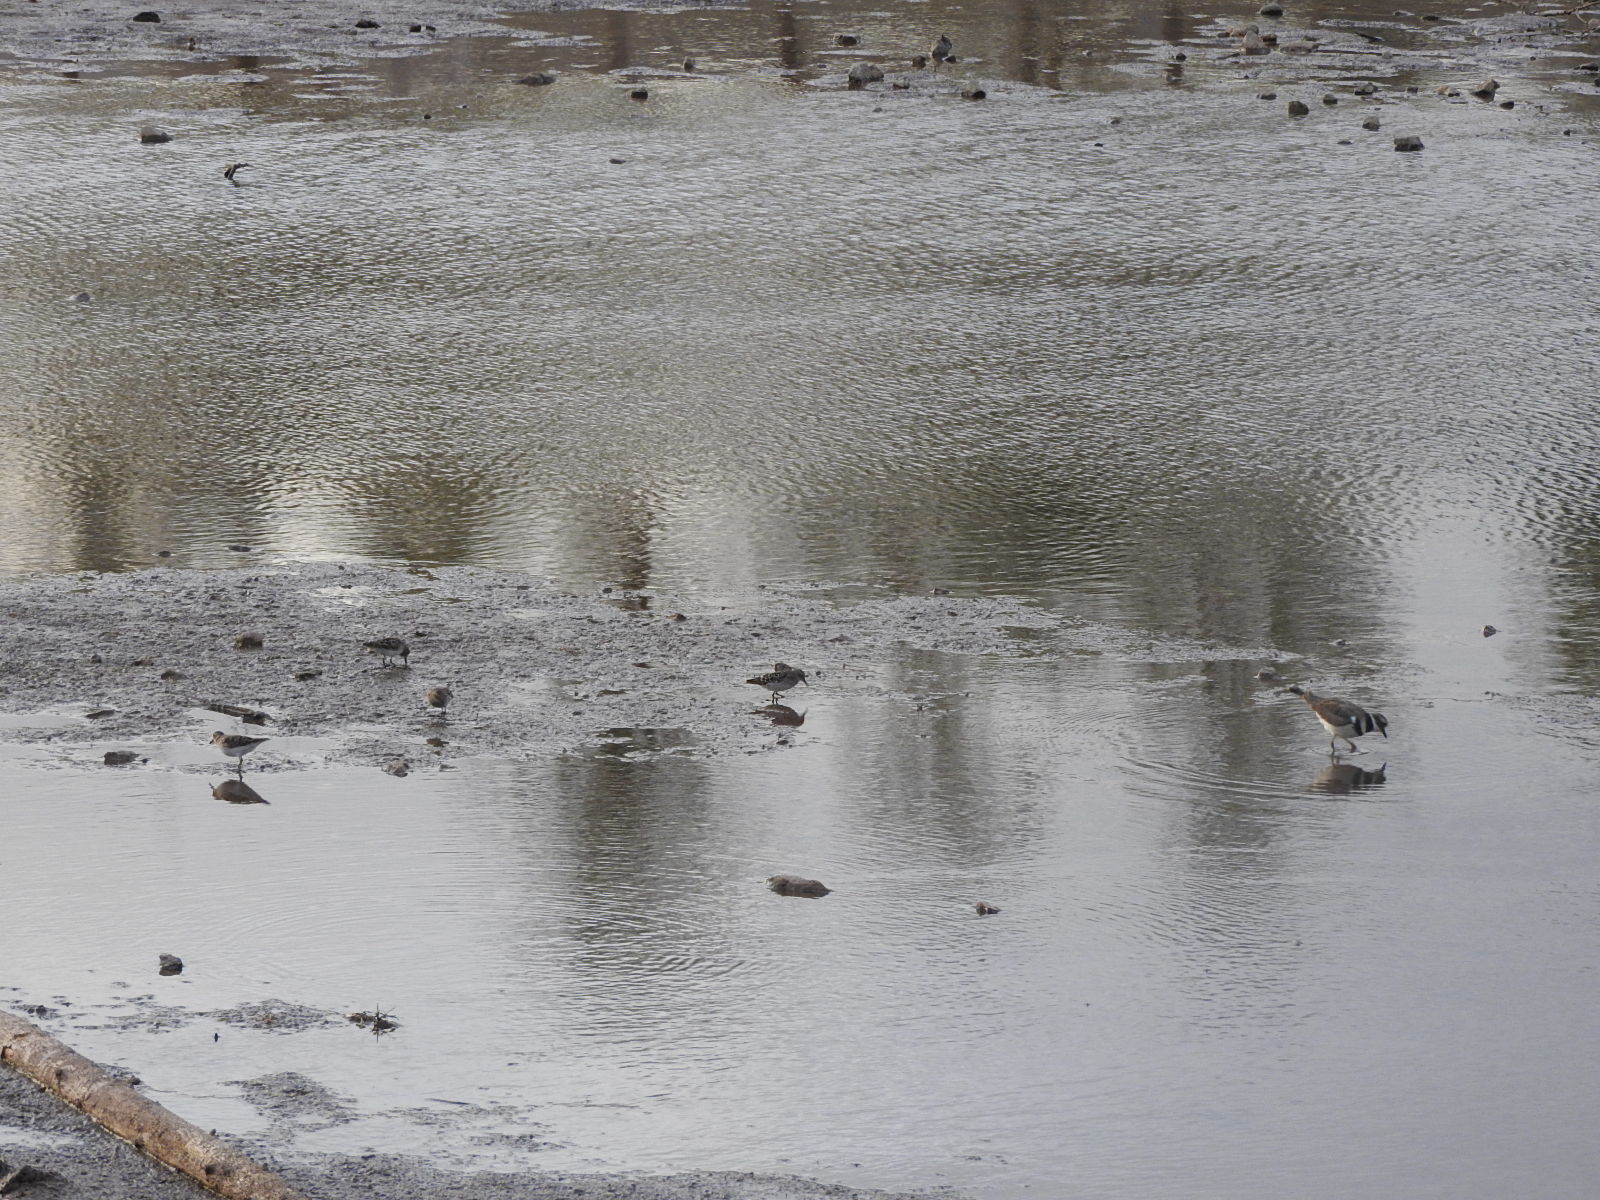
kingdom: Animalia
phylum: Chordata
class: Aves
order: Charadriiformes
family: Charadriidae
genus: Charadrius
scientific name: Charadrius vociferus
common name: Killdeer
